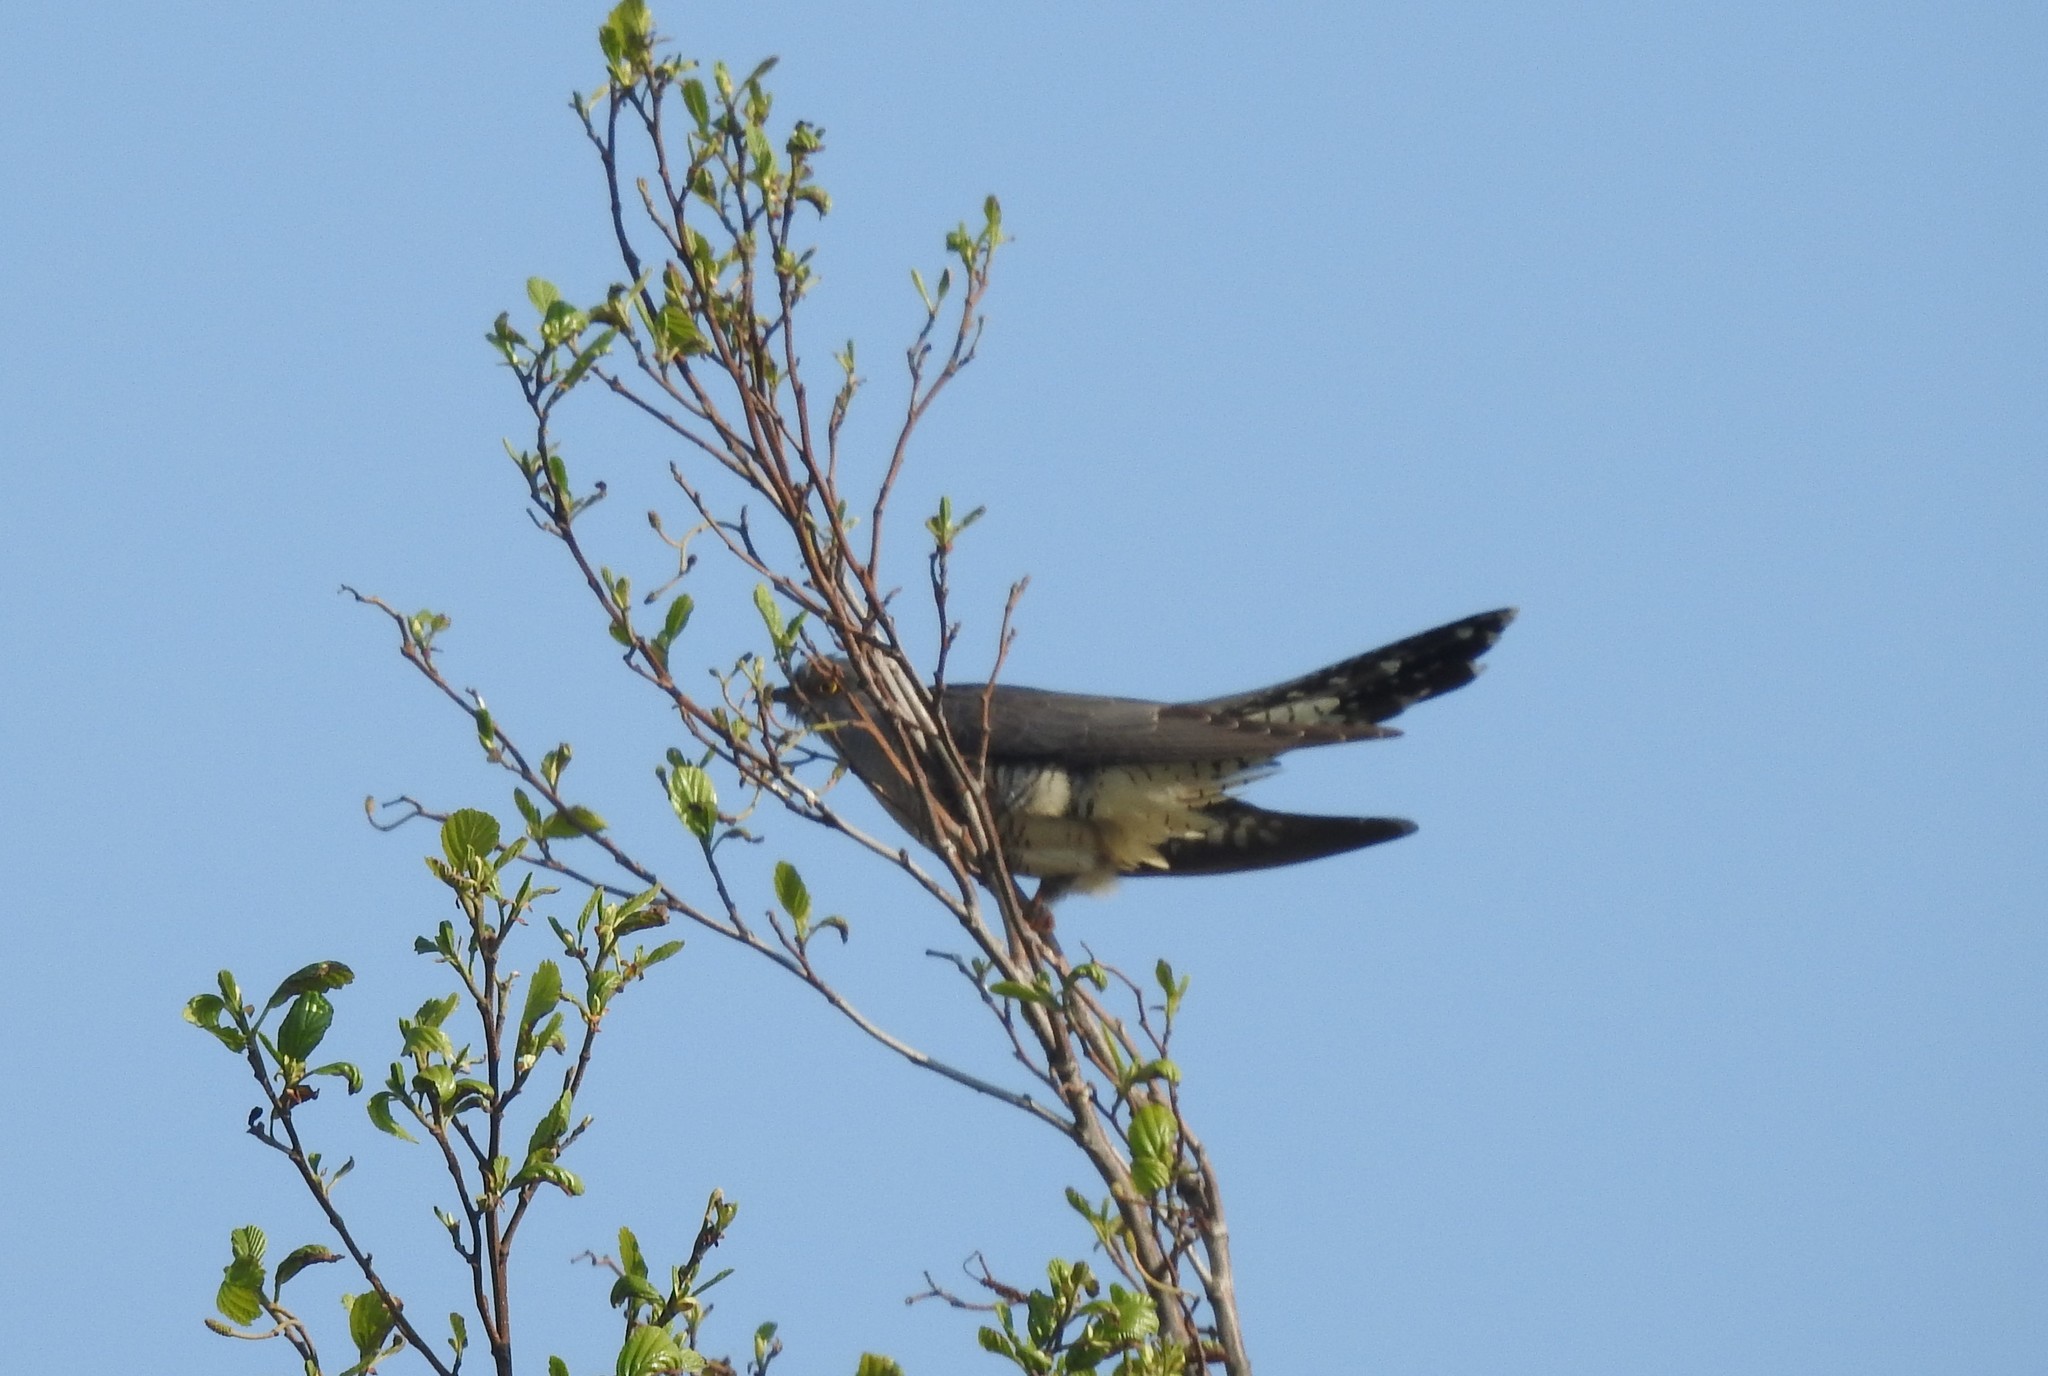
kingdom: Animalia
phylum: Chordata
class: Aves
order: Cuculiformes
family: Cuculidae
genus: Cuculus
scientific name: Cuculus canorus
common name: Common cuckoo
